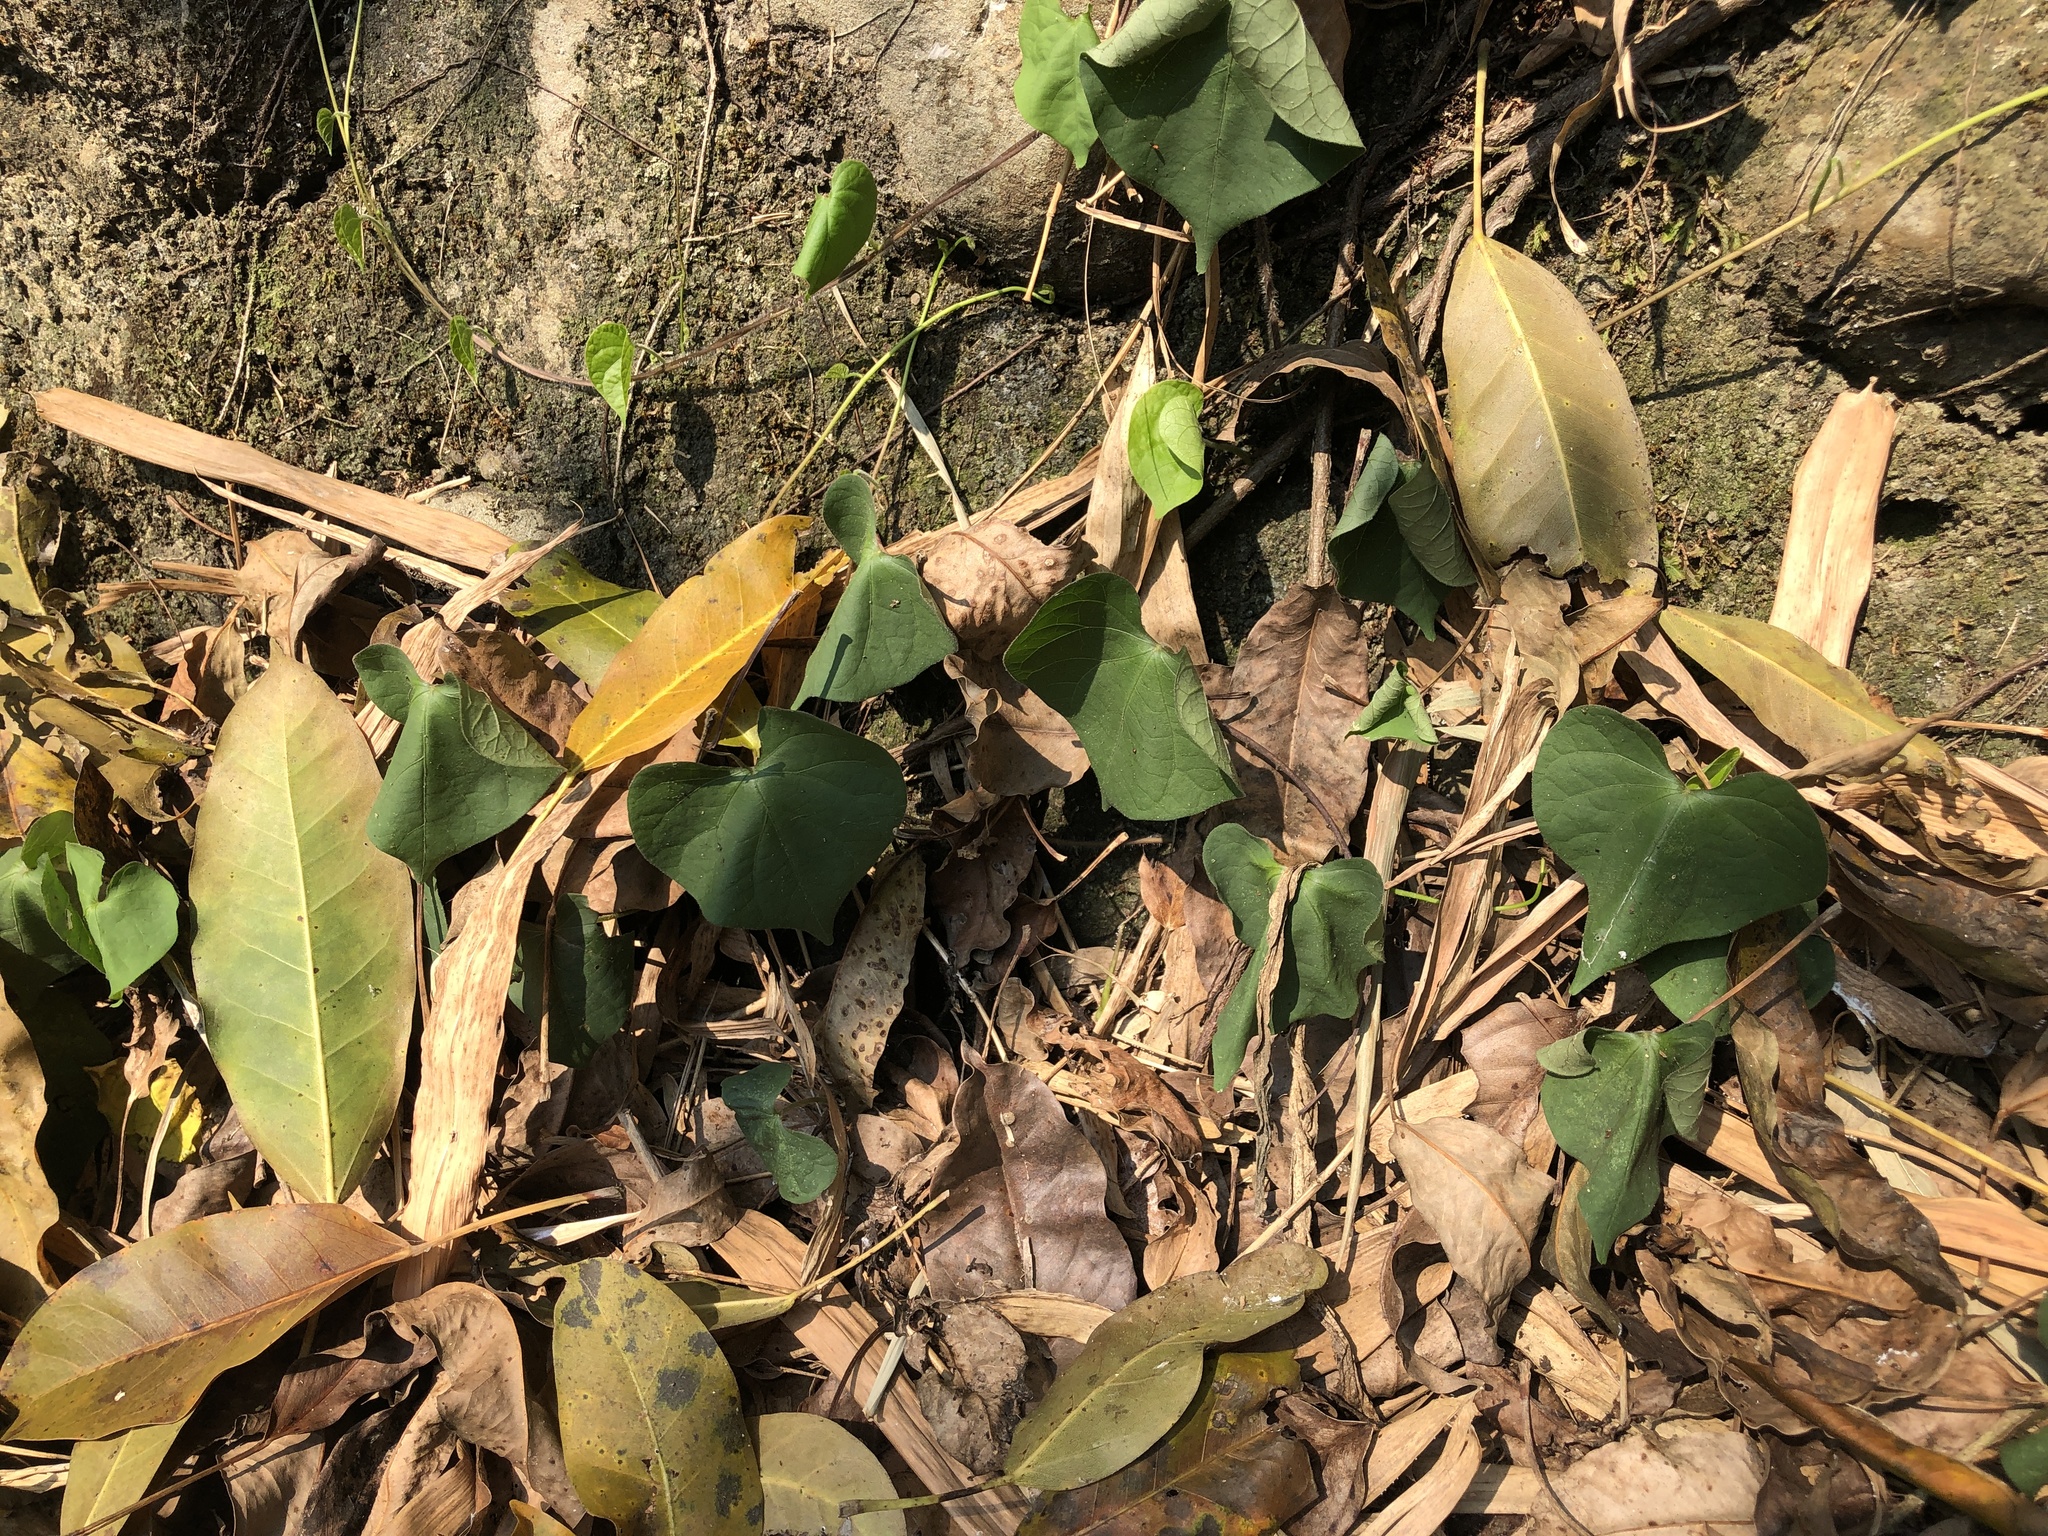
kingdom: Plantae
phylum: Tracheophyta
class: Magnoliopsida
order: Solanales
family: Convolvulaceae
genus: Ipomoea
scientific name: Ipomoea obscura
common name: Obscure morning-glory
